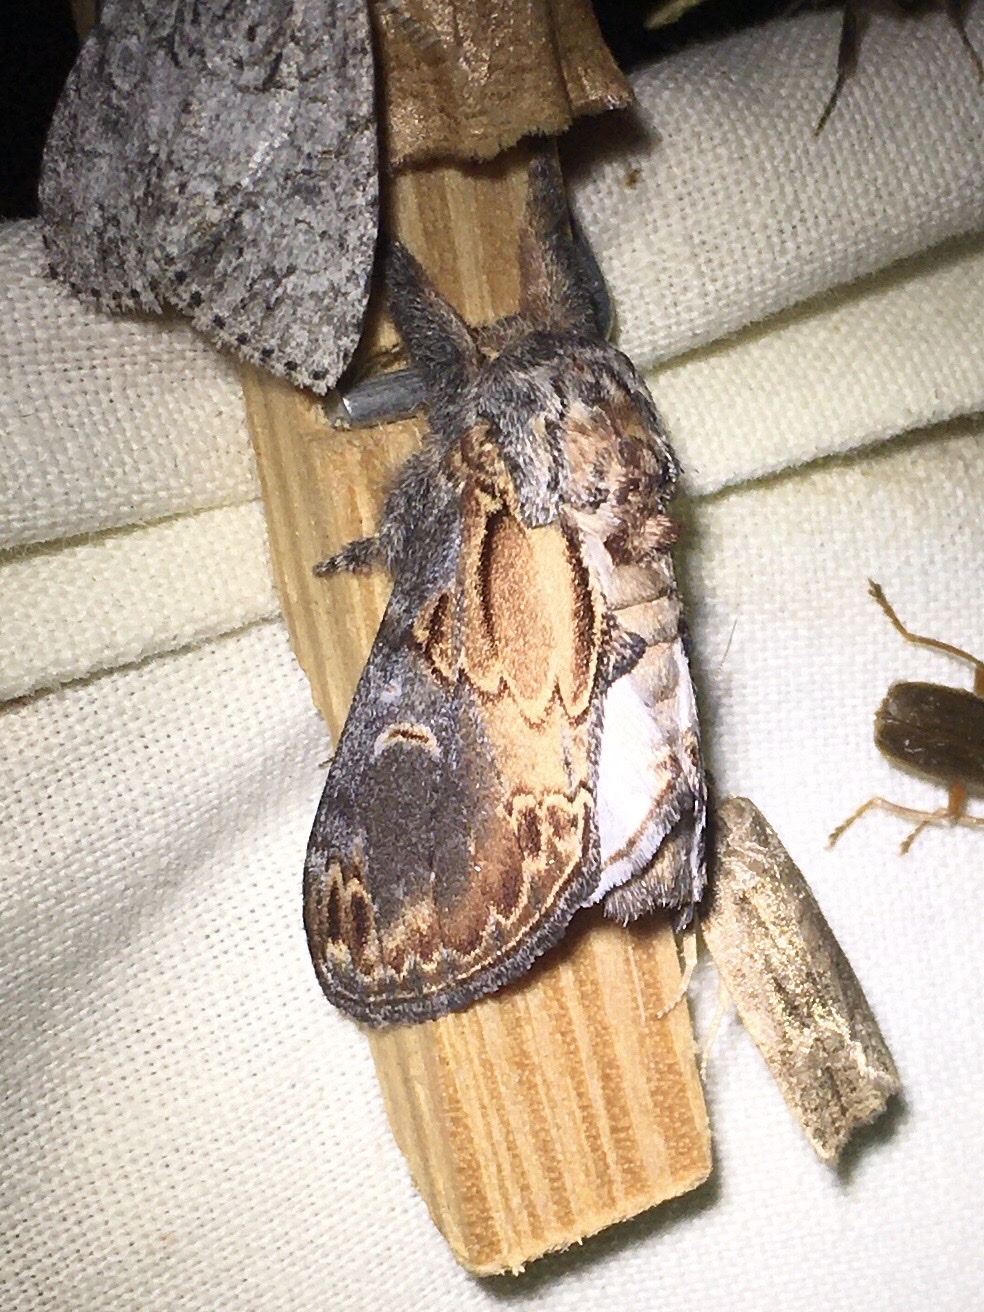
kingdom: Animalia
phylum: Arthropoda
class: Insecta
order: Lepidoptera
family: Notodontidae
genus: Notodonta
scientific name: Notodonta scitipennis
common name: Finned-willow prominent moth
